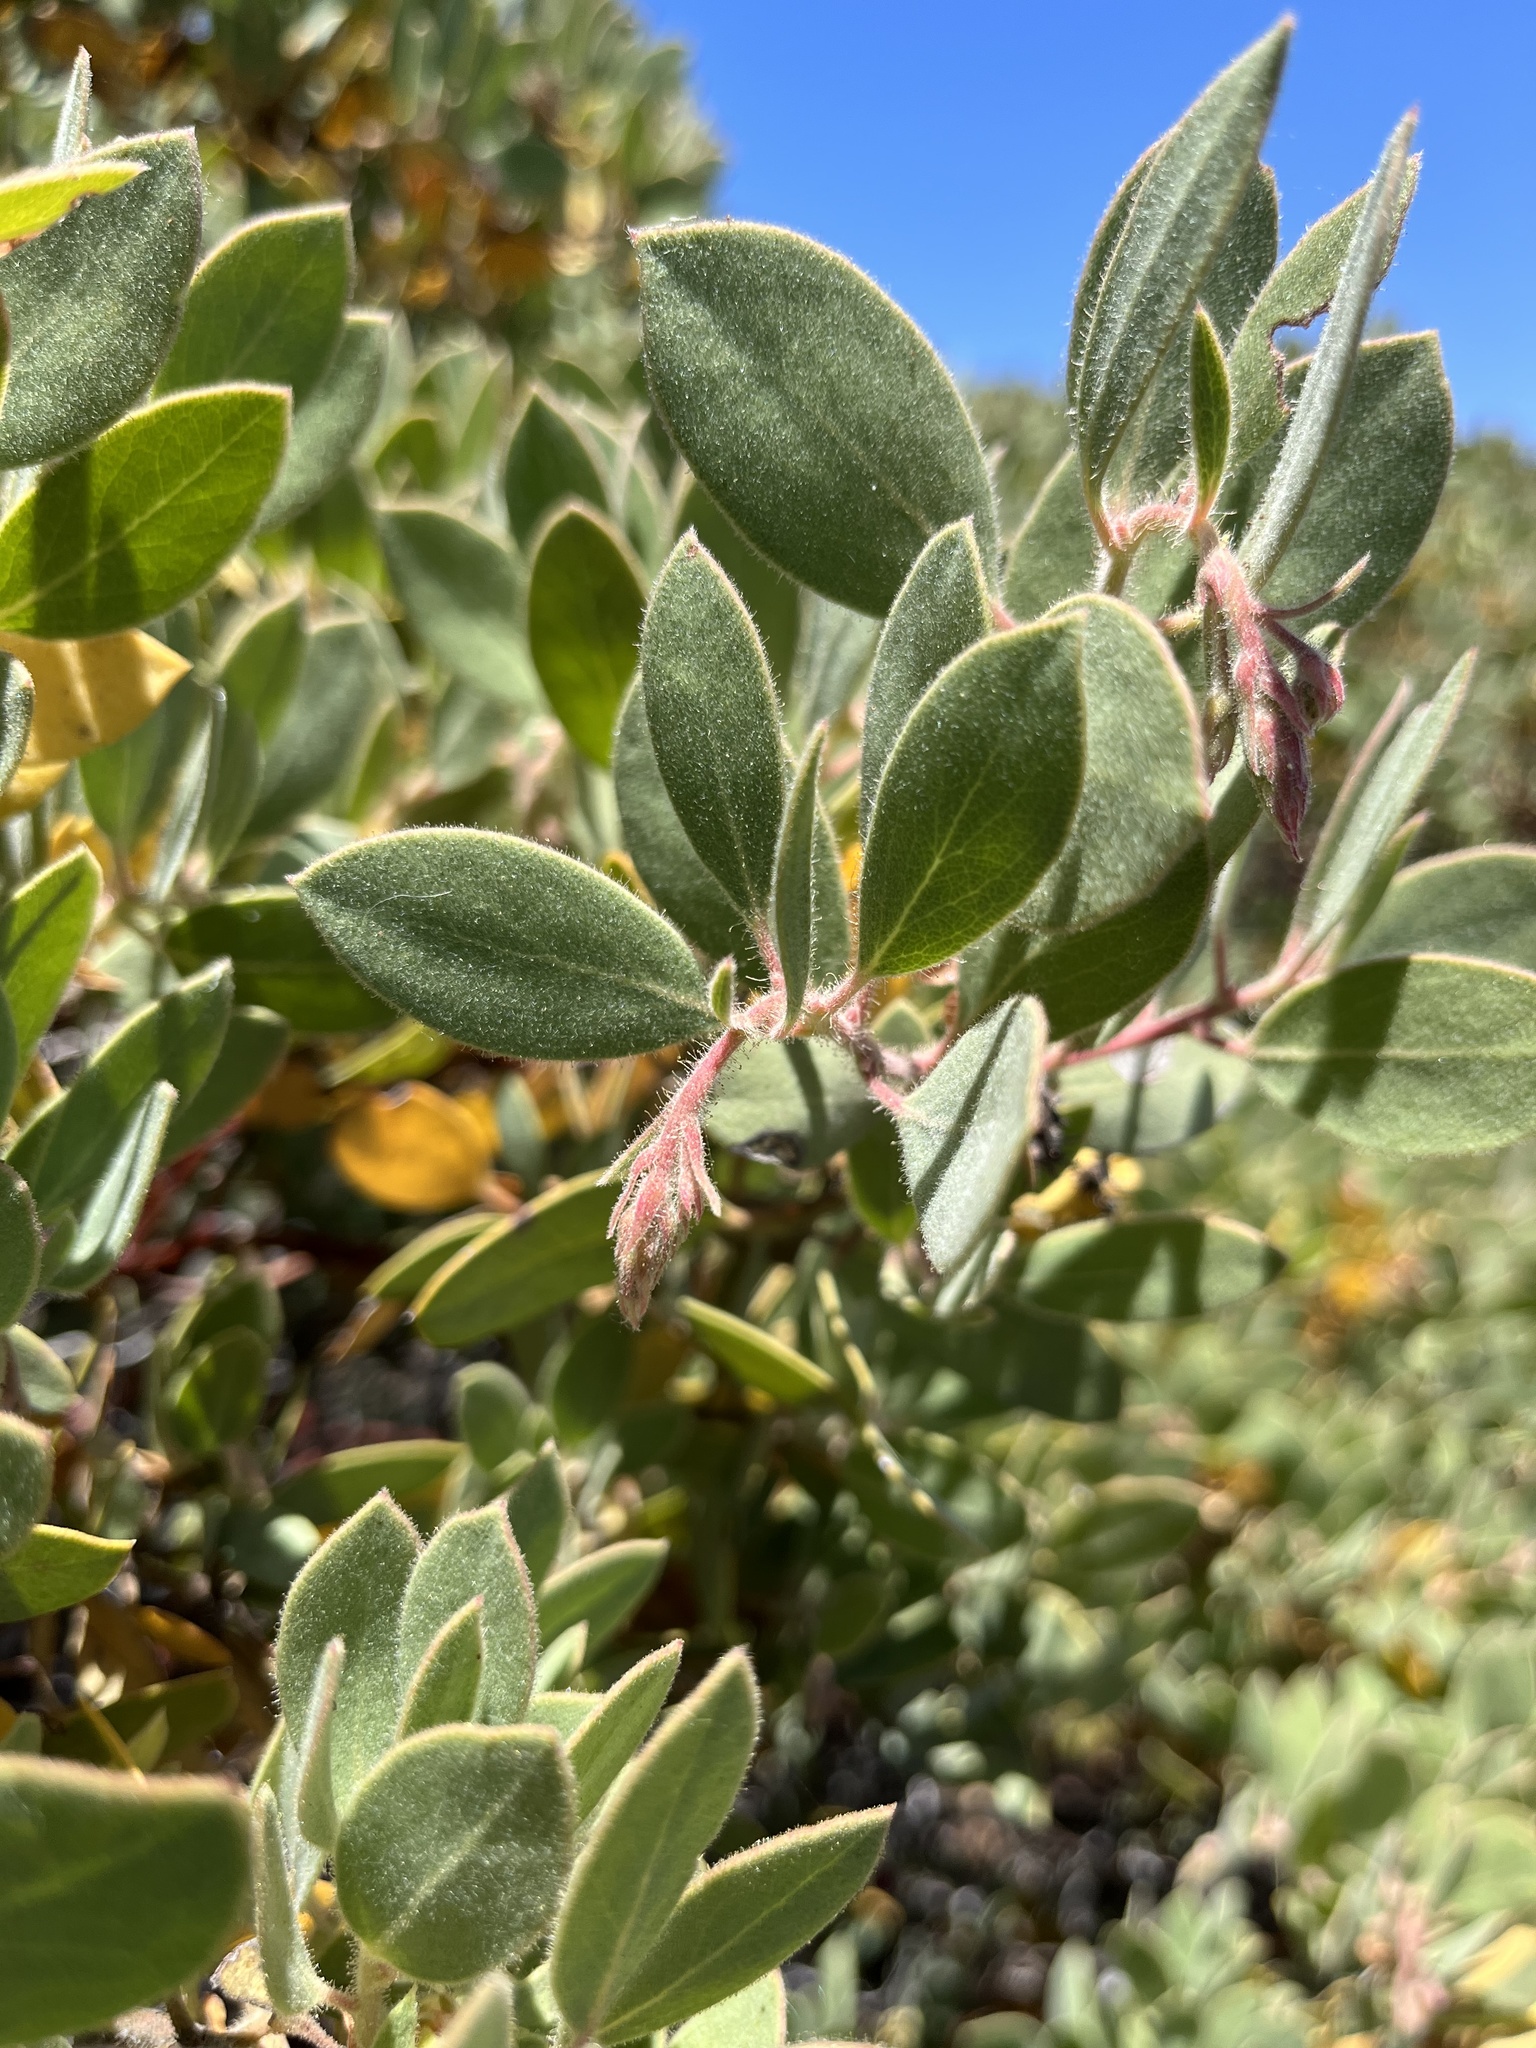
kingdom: Plantae
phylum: Tracheophyta
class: Magnoliopsida
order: Ericales
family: Ericaceae
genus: Arctostaphylos
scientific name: Arctostaphylos glandulosa
